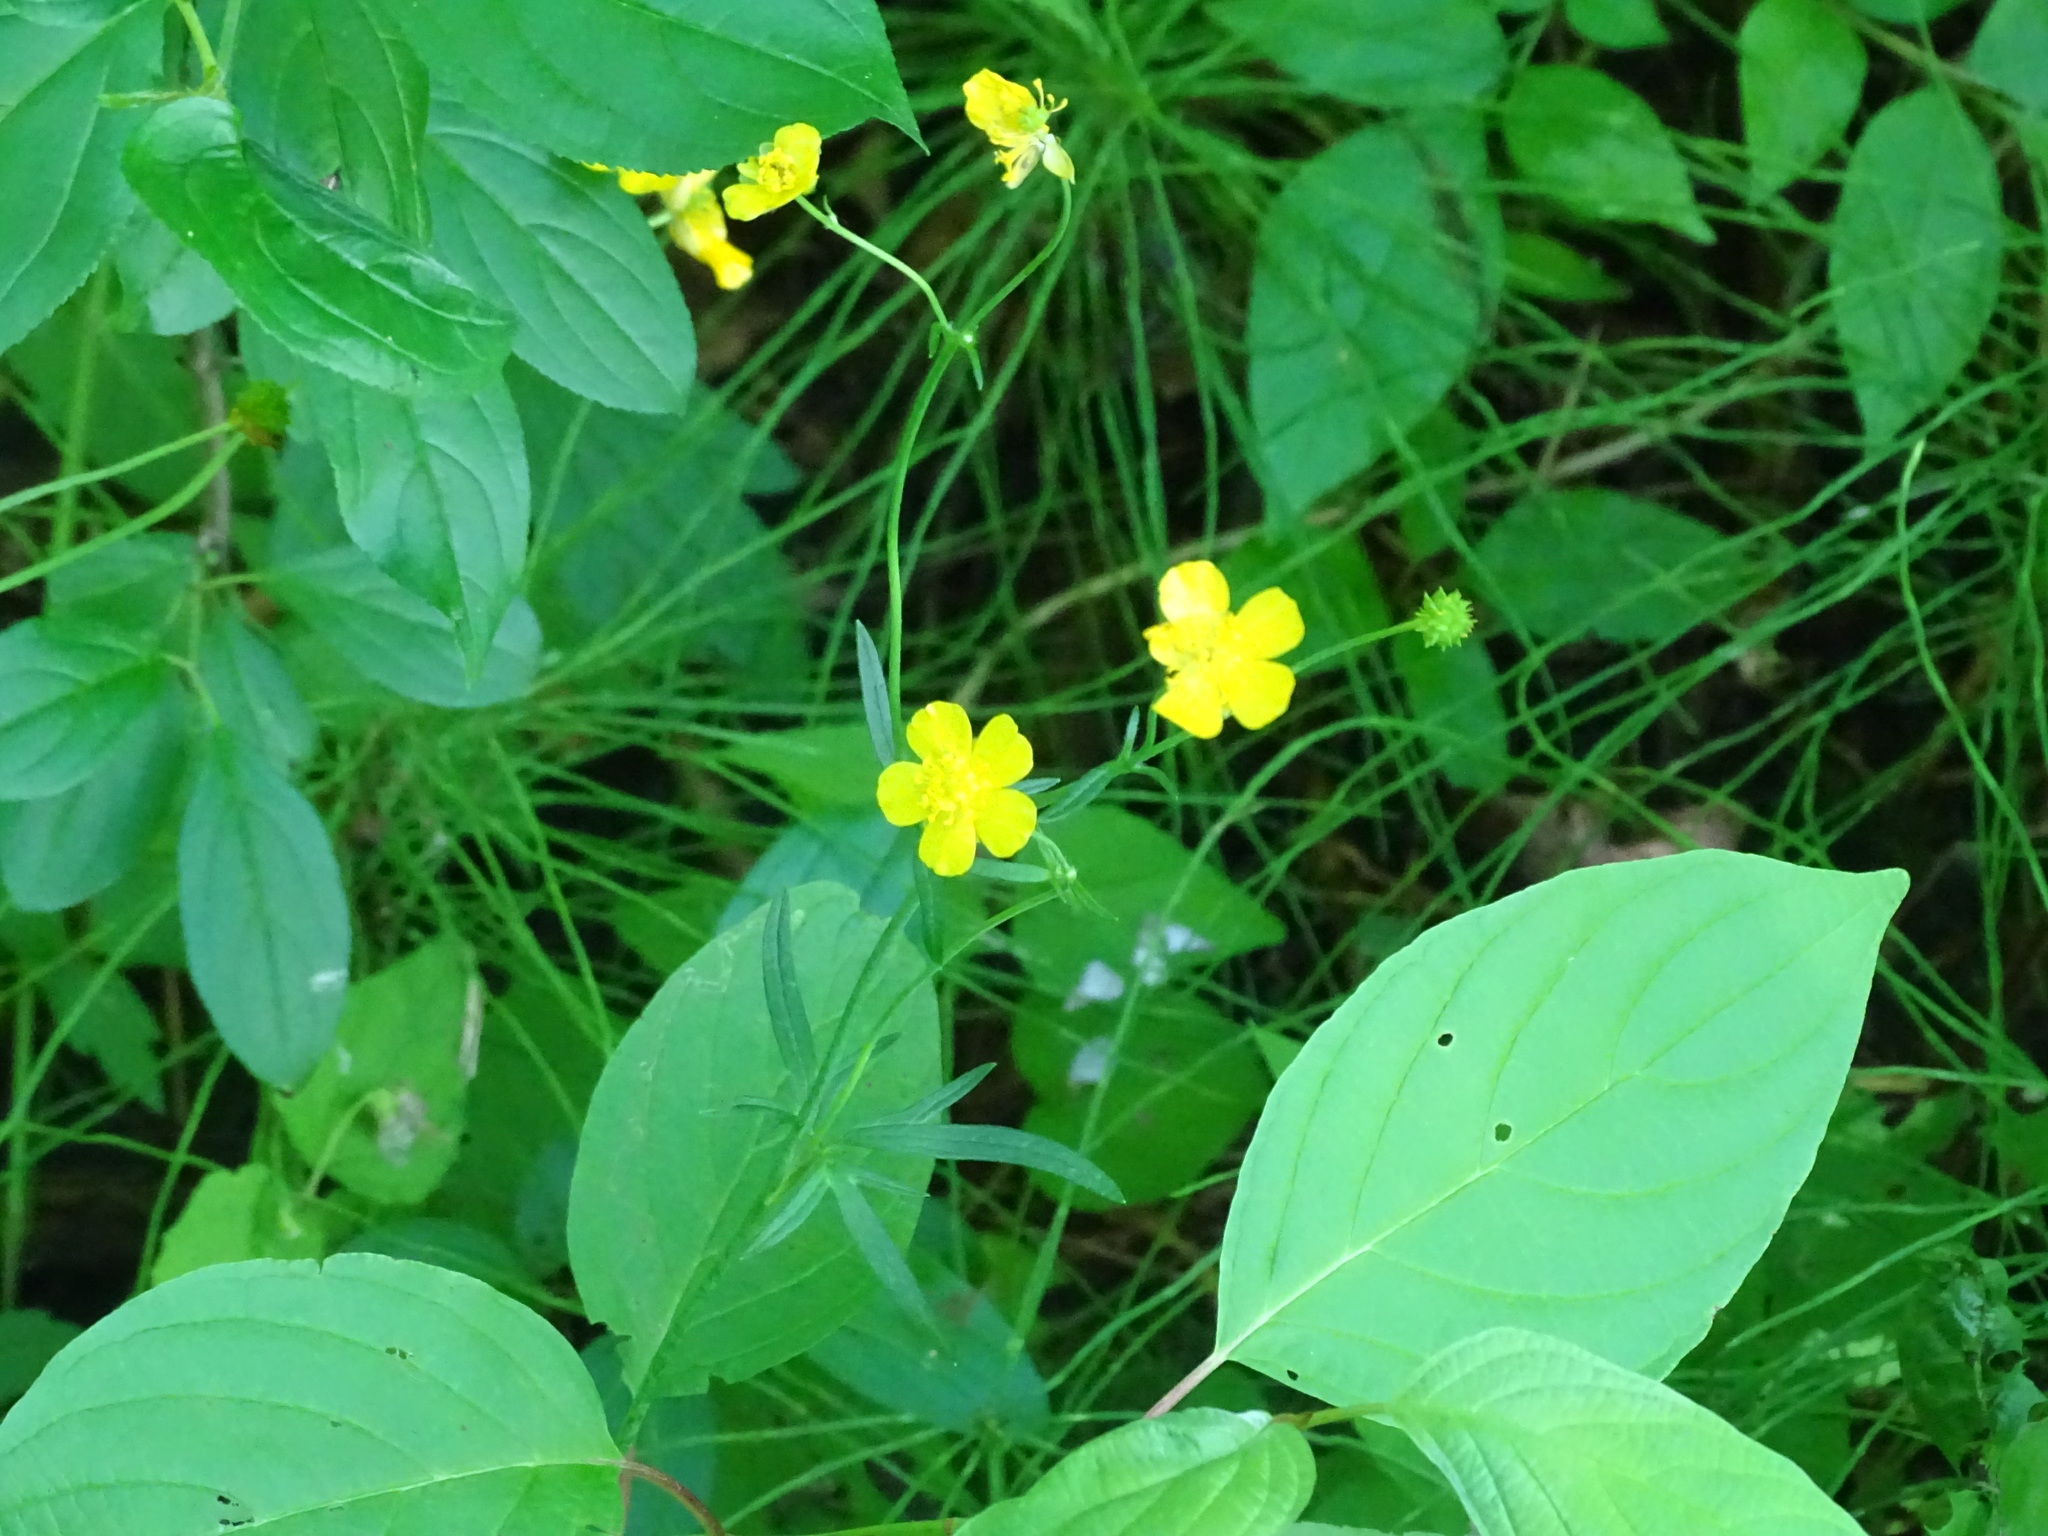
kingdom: Plantae
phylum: Tracheophyta
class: Magnoliopsida
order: Ranunculales
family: Ranunculaceae
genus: Ranunculus
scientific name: Ranunculus acris
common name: Meadow buttercup
